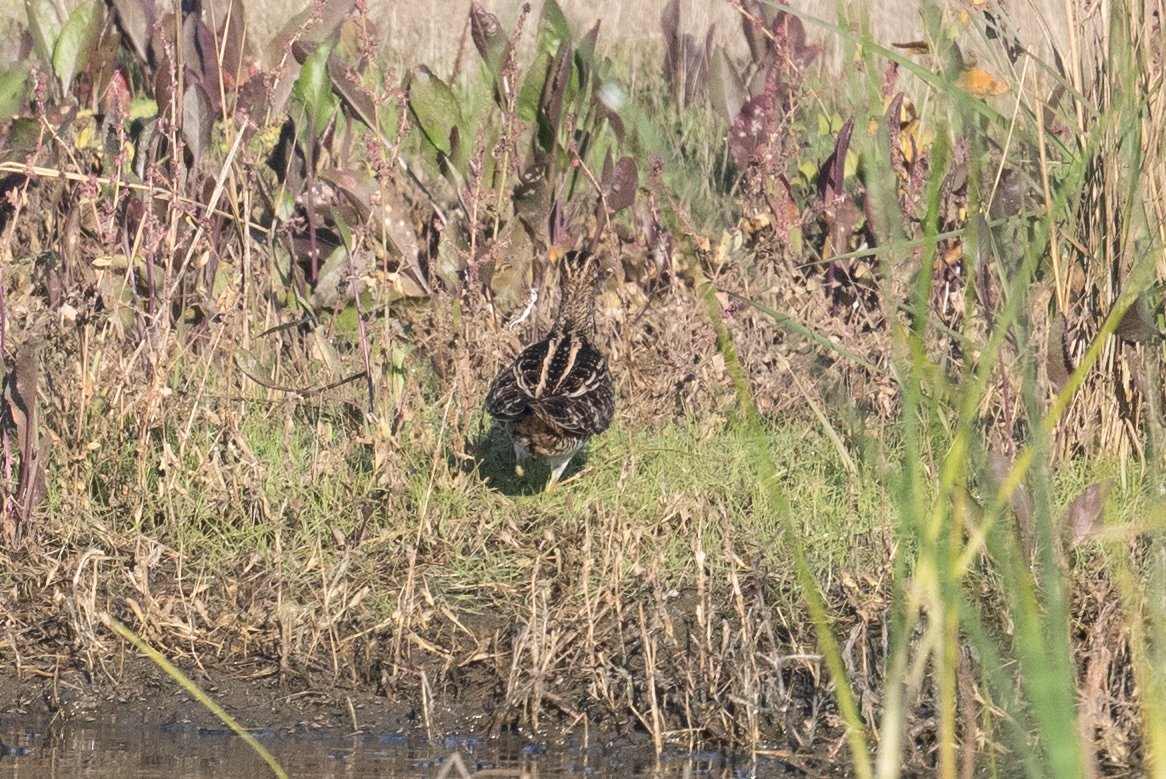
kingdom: Animalia
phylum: Chordata
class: Aves
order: Charadriiformes
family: Scolopacidae
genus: Gallinago
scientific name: Gallinago delicata
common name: Wilson's snipe
